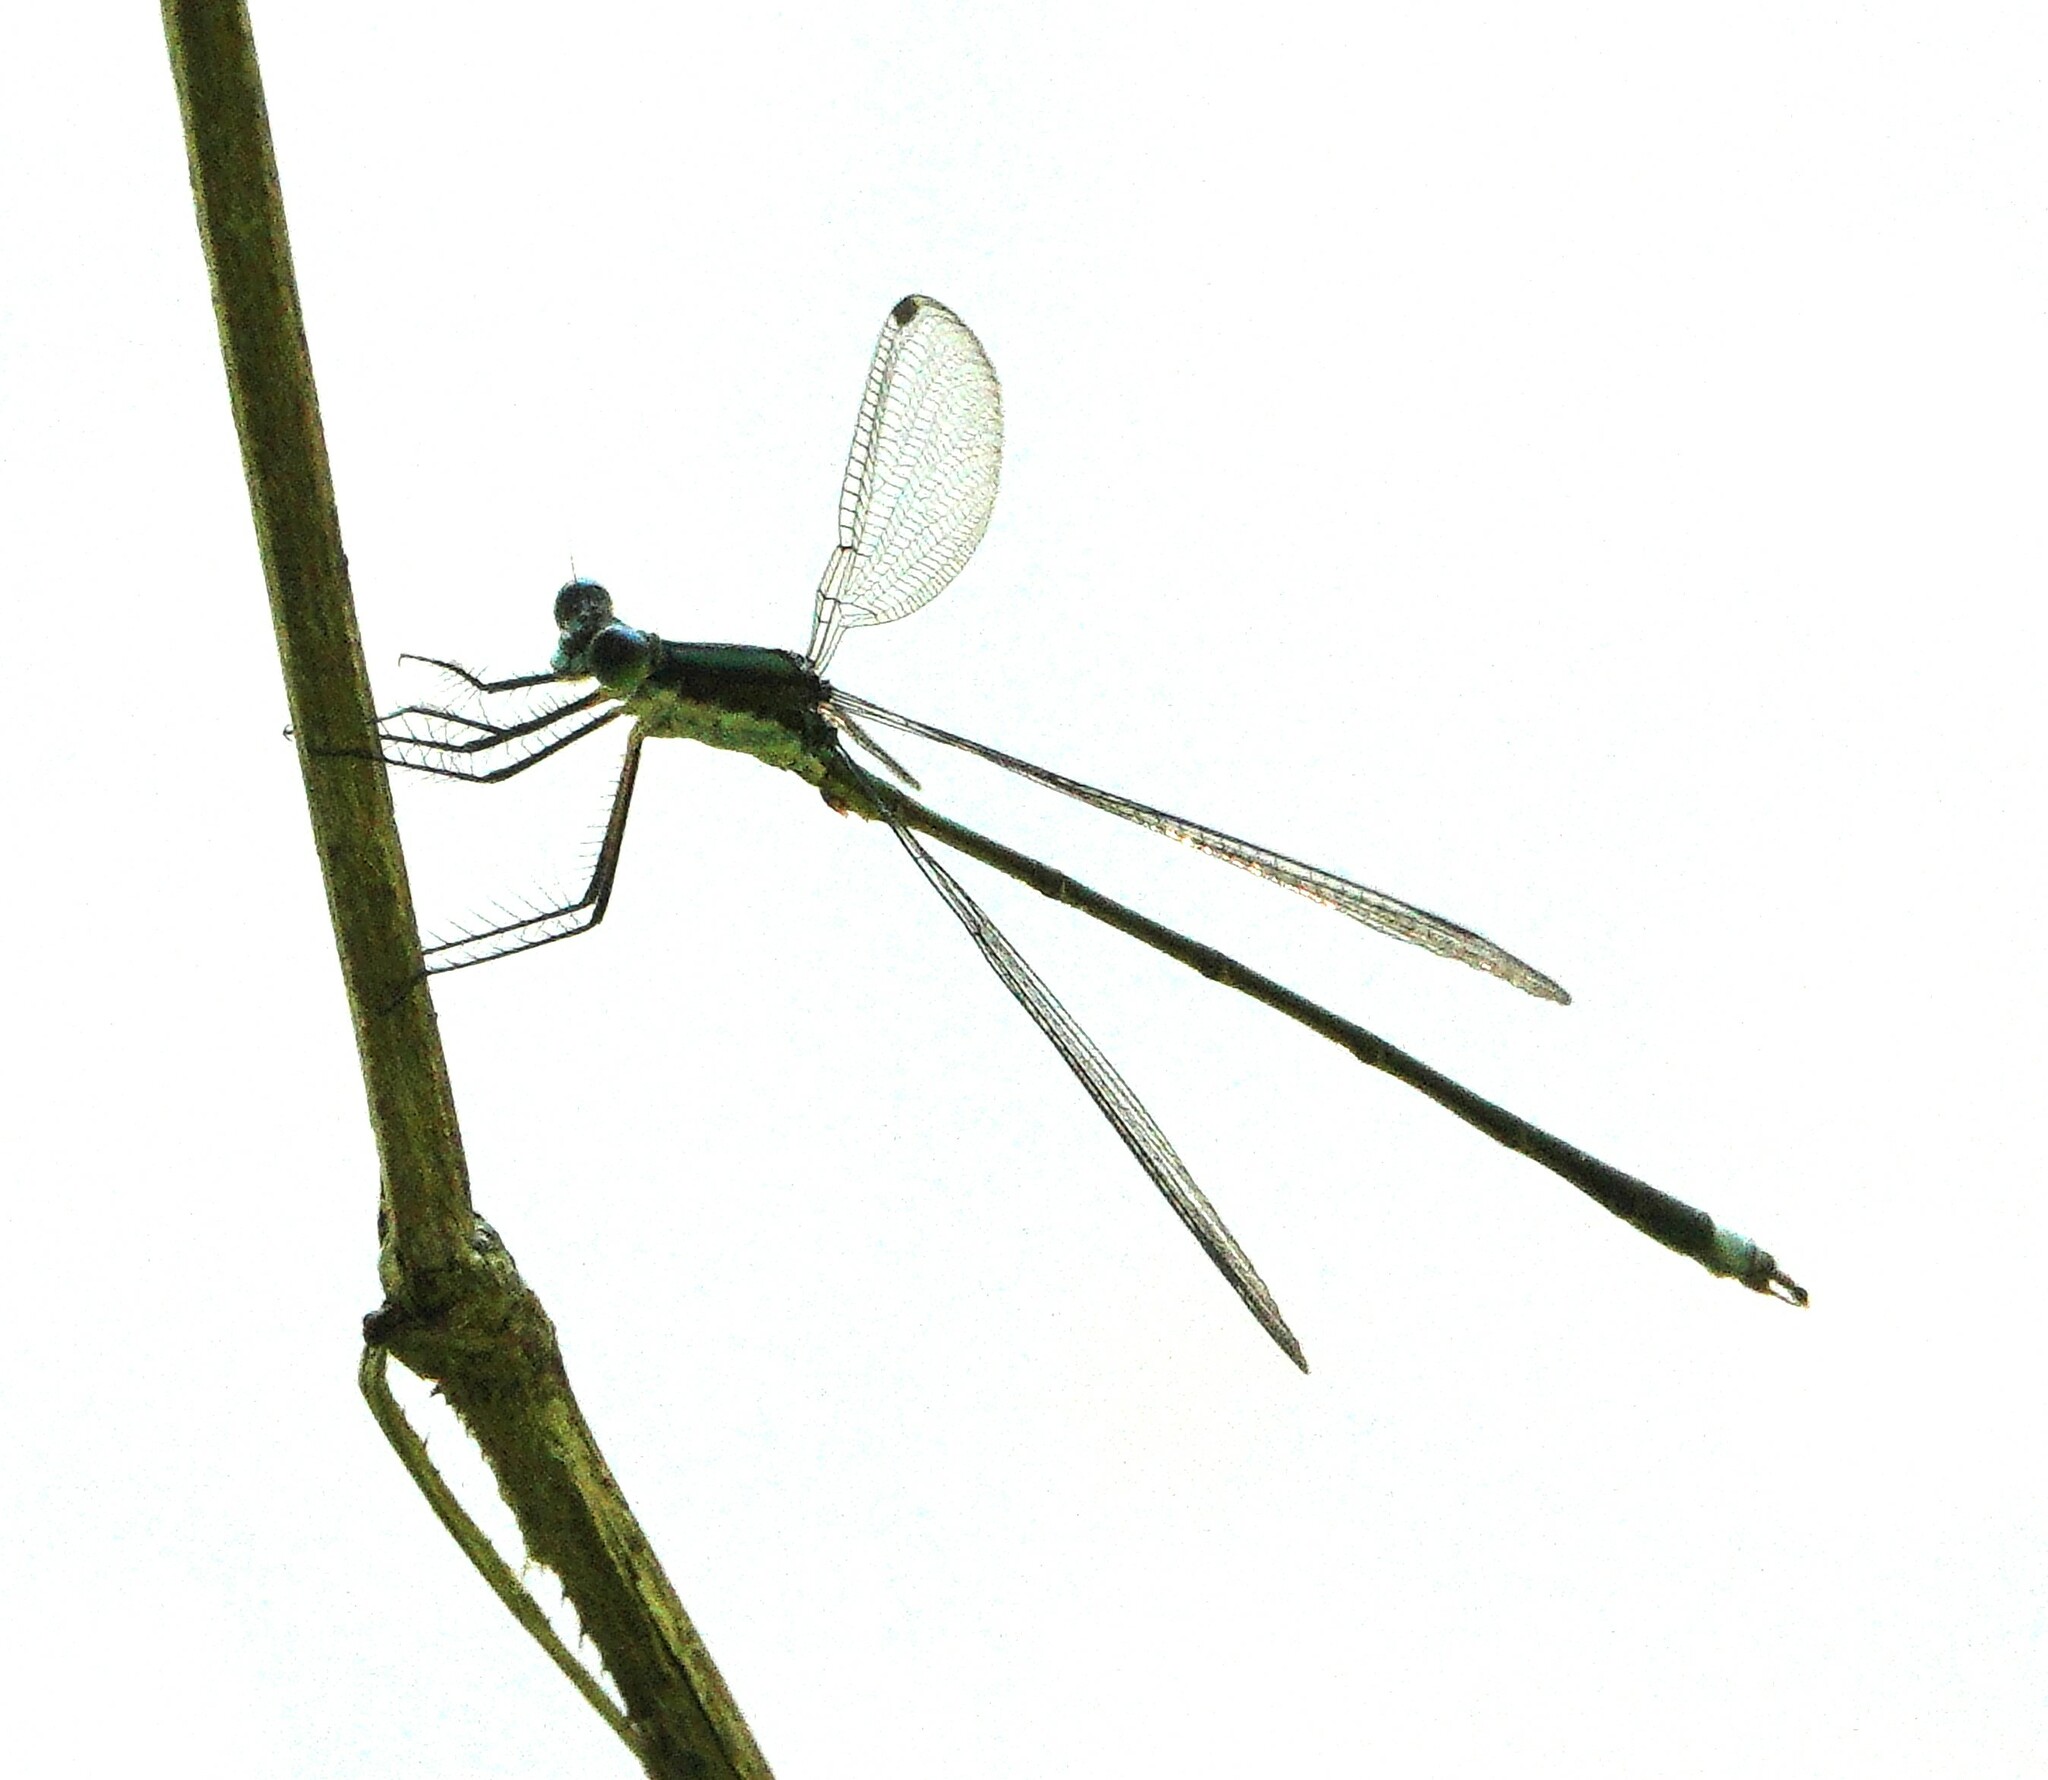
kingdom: Animalia
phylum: Arthropoda
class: Insecta
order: Odonata
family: Lestidae
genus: Lestes
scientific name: Lestes vigilax
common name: Swamp spreadwing
